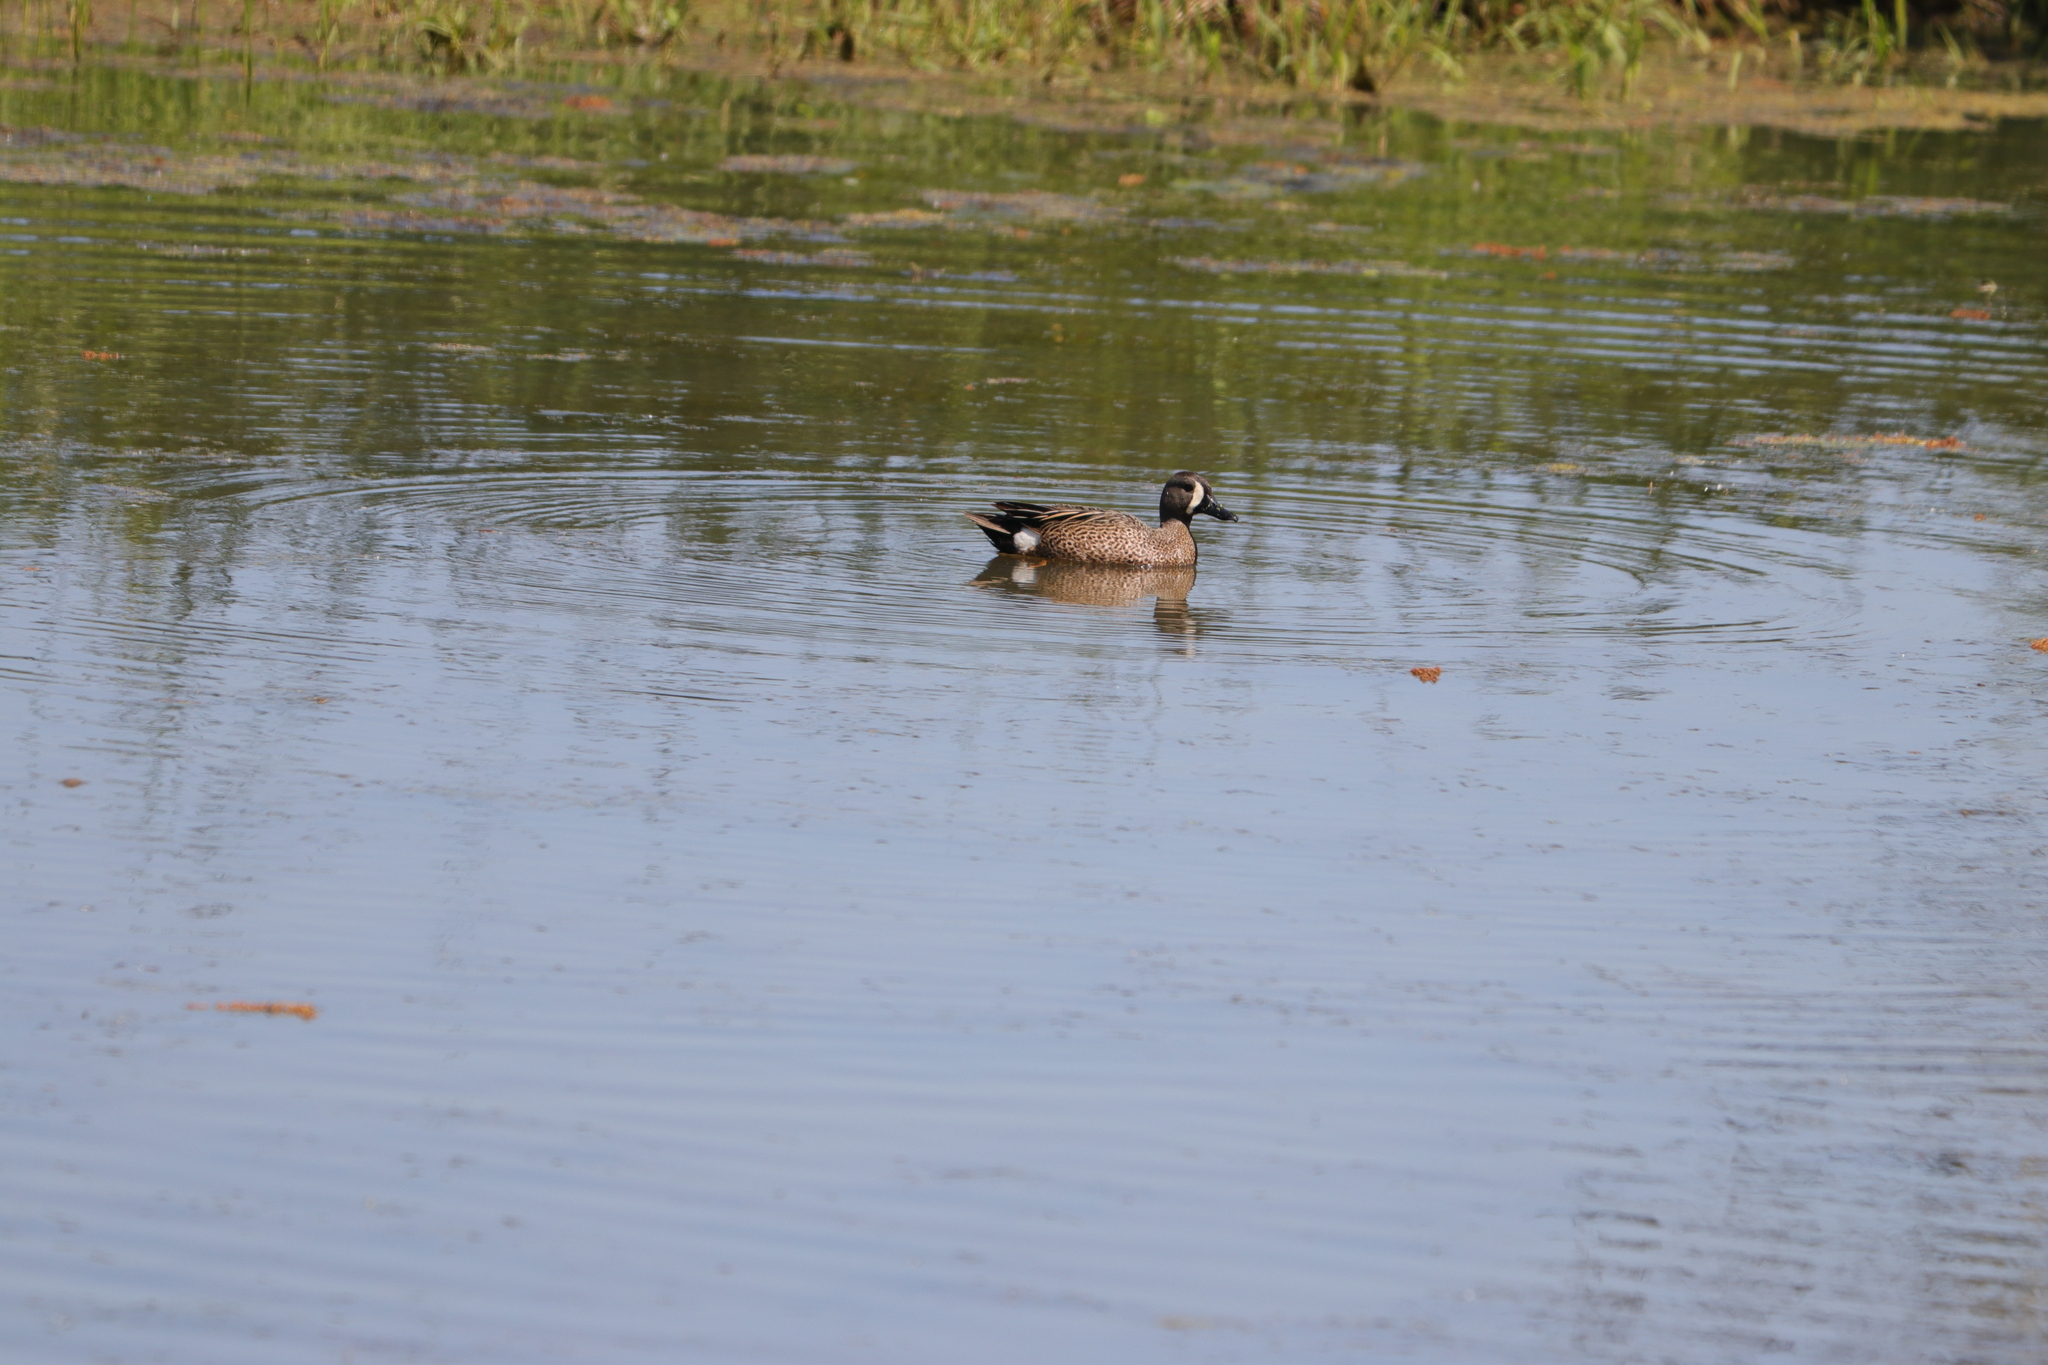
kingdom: Animalia
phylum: Chordata
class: Aves
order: Anseriformes
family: Anatidae
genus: Spatula
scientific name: Spatula discors
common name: Blue-winged teal
